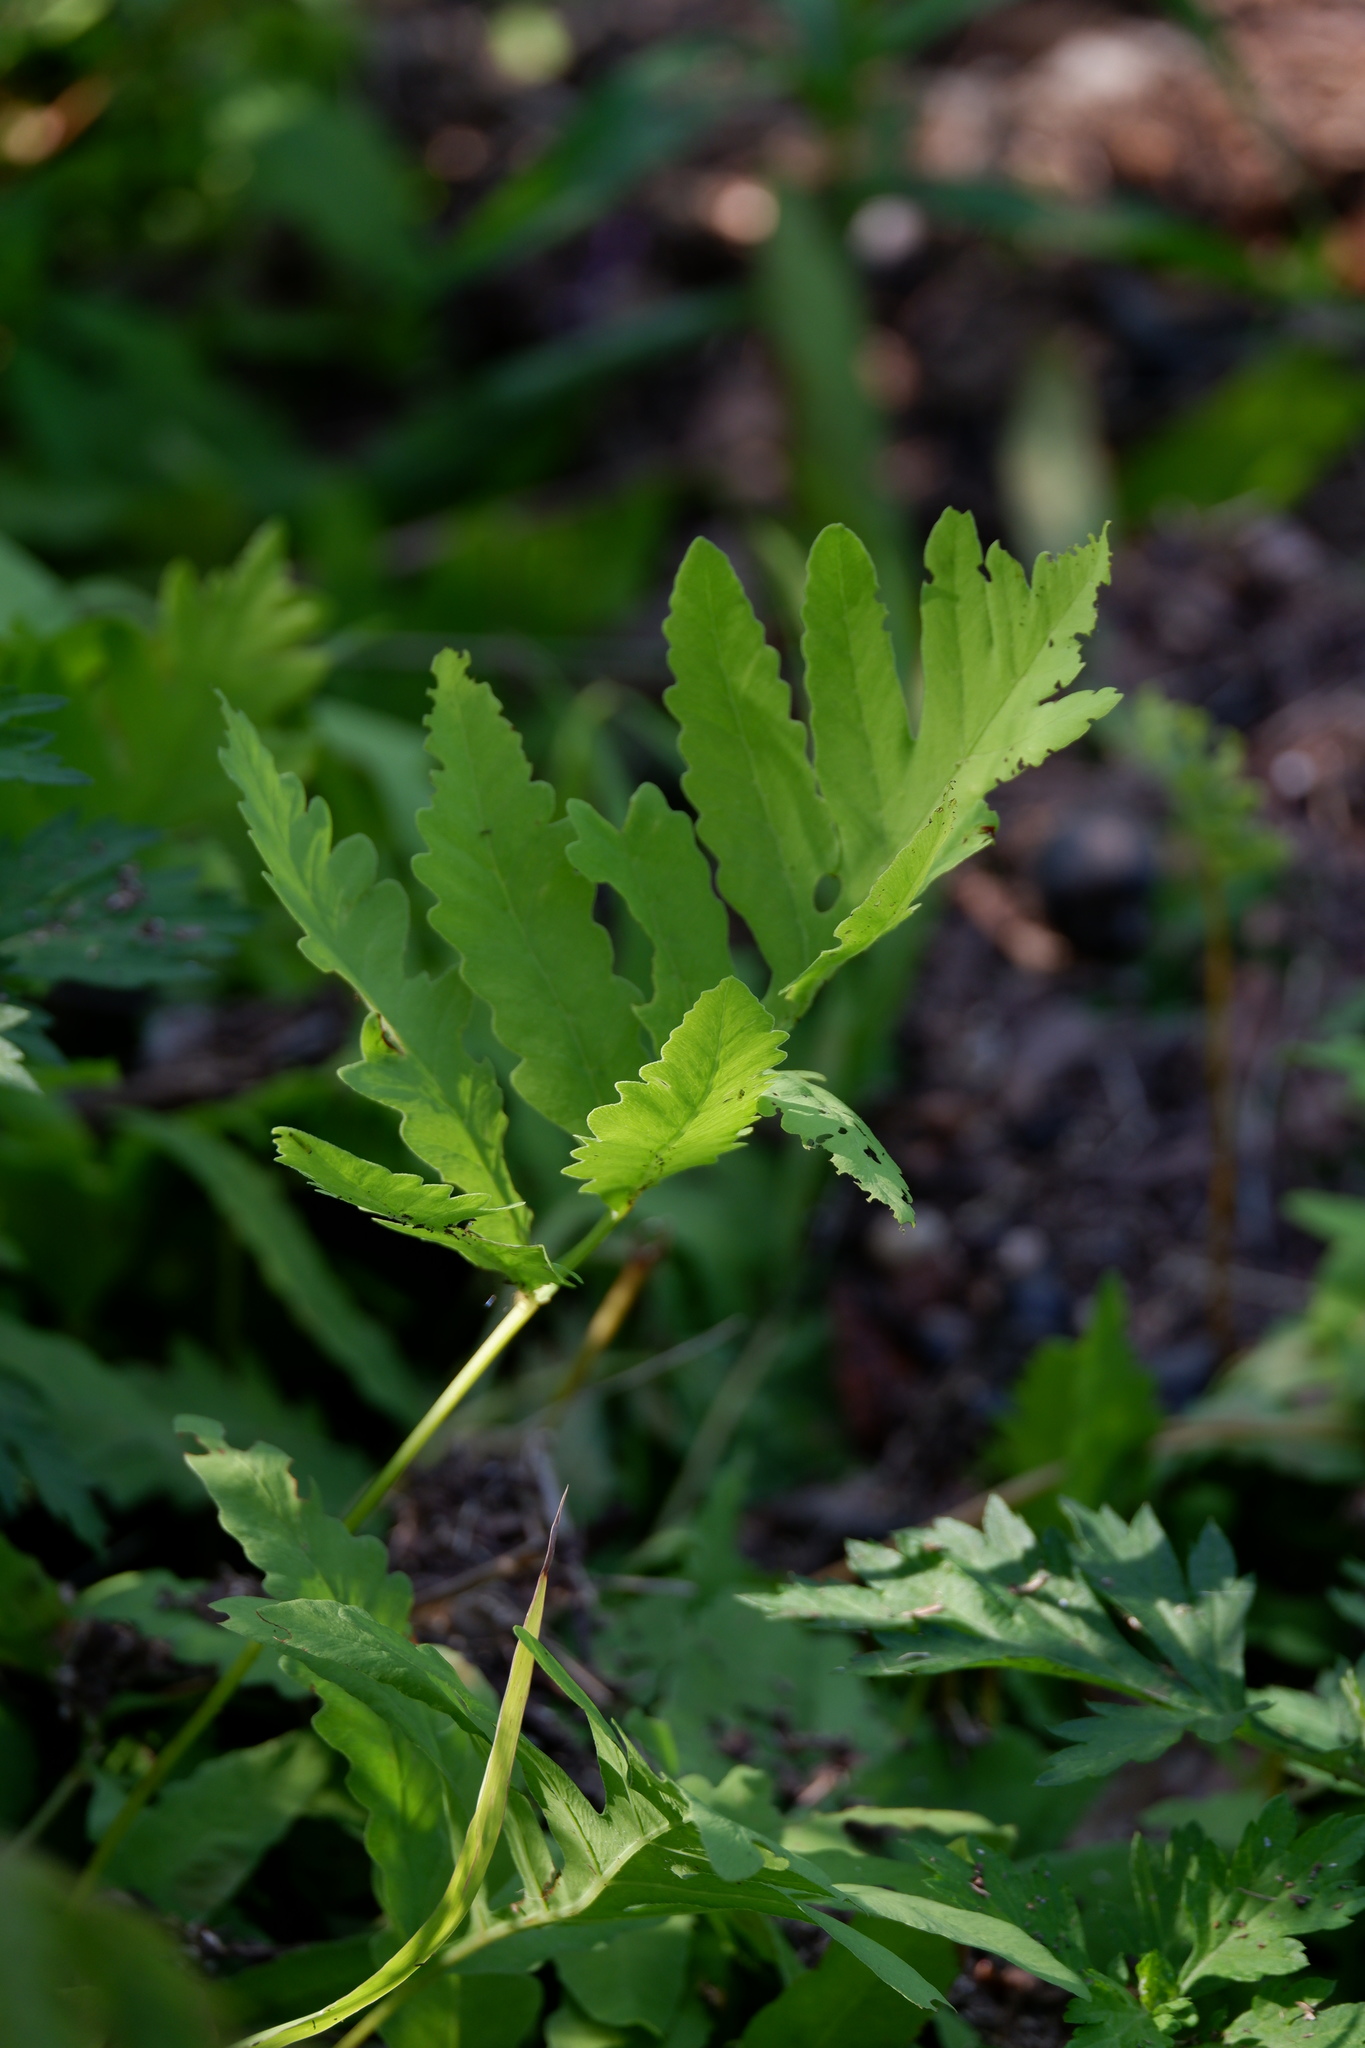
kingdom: Plantae
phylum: Tracheophyta
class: Polypodiopsida
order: Polypodiales
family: Onocleaceae
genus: Onoclea
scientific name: Onoclea sensibilis
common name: Sensitive fern
